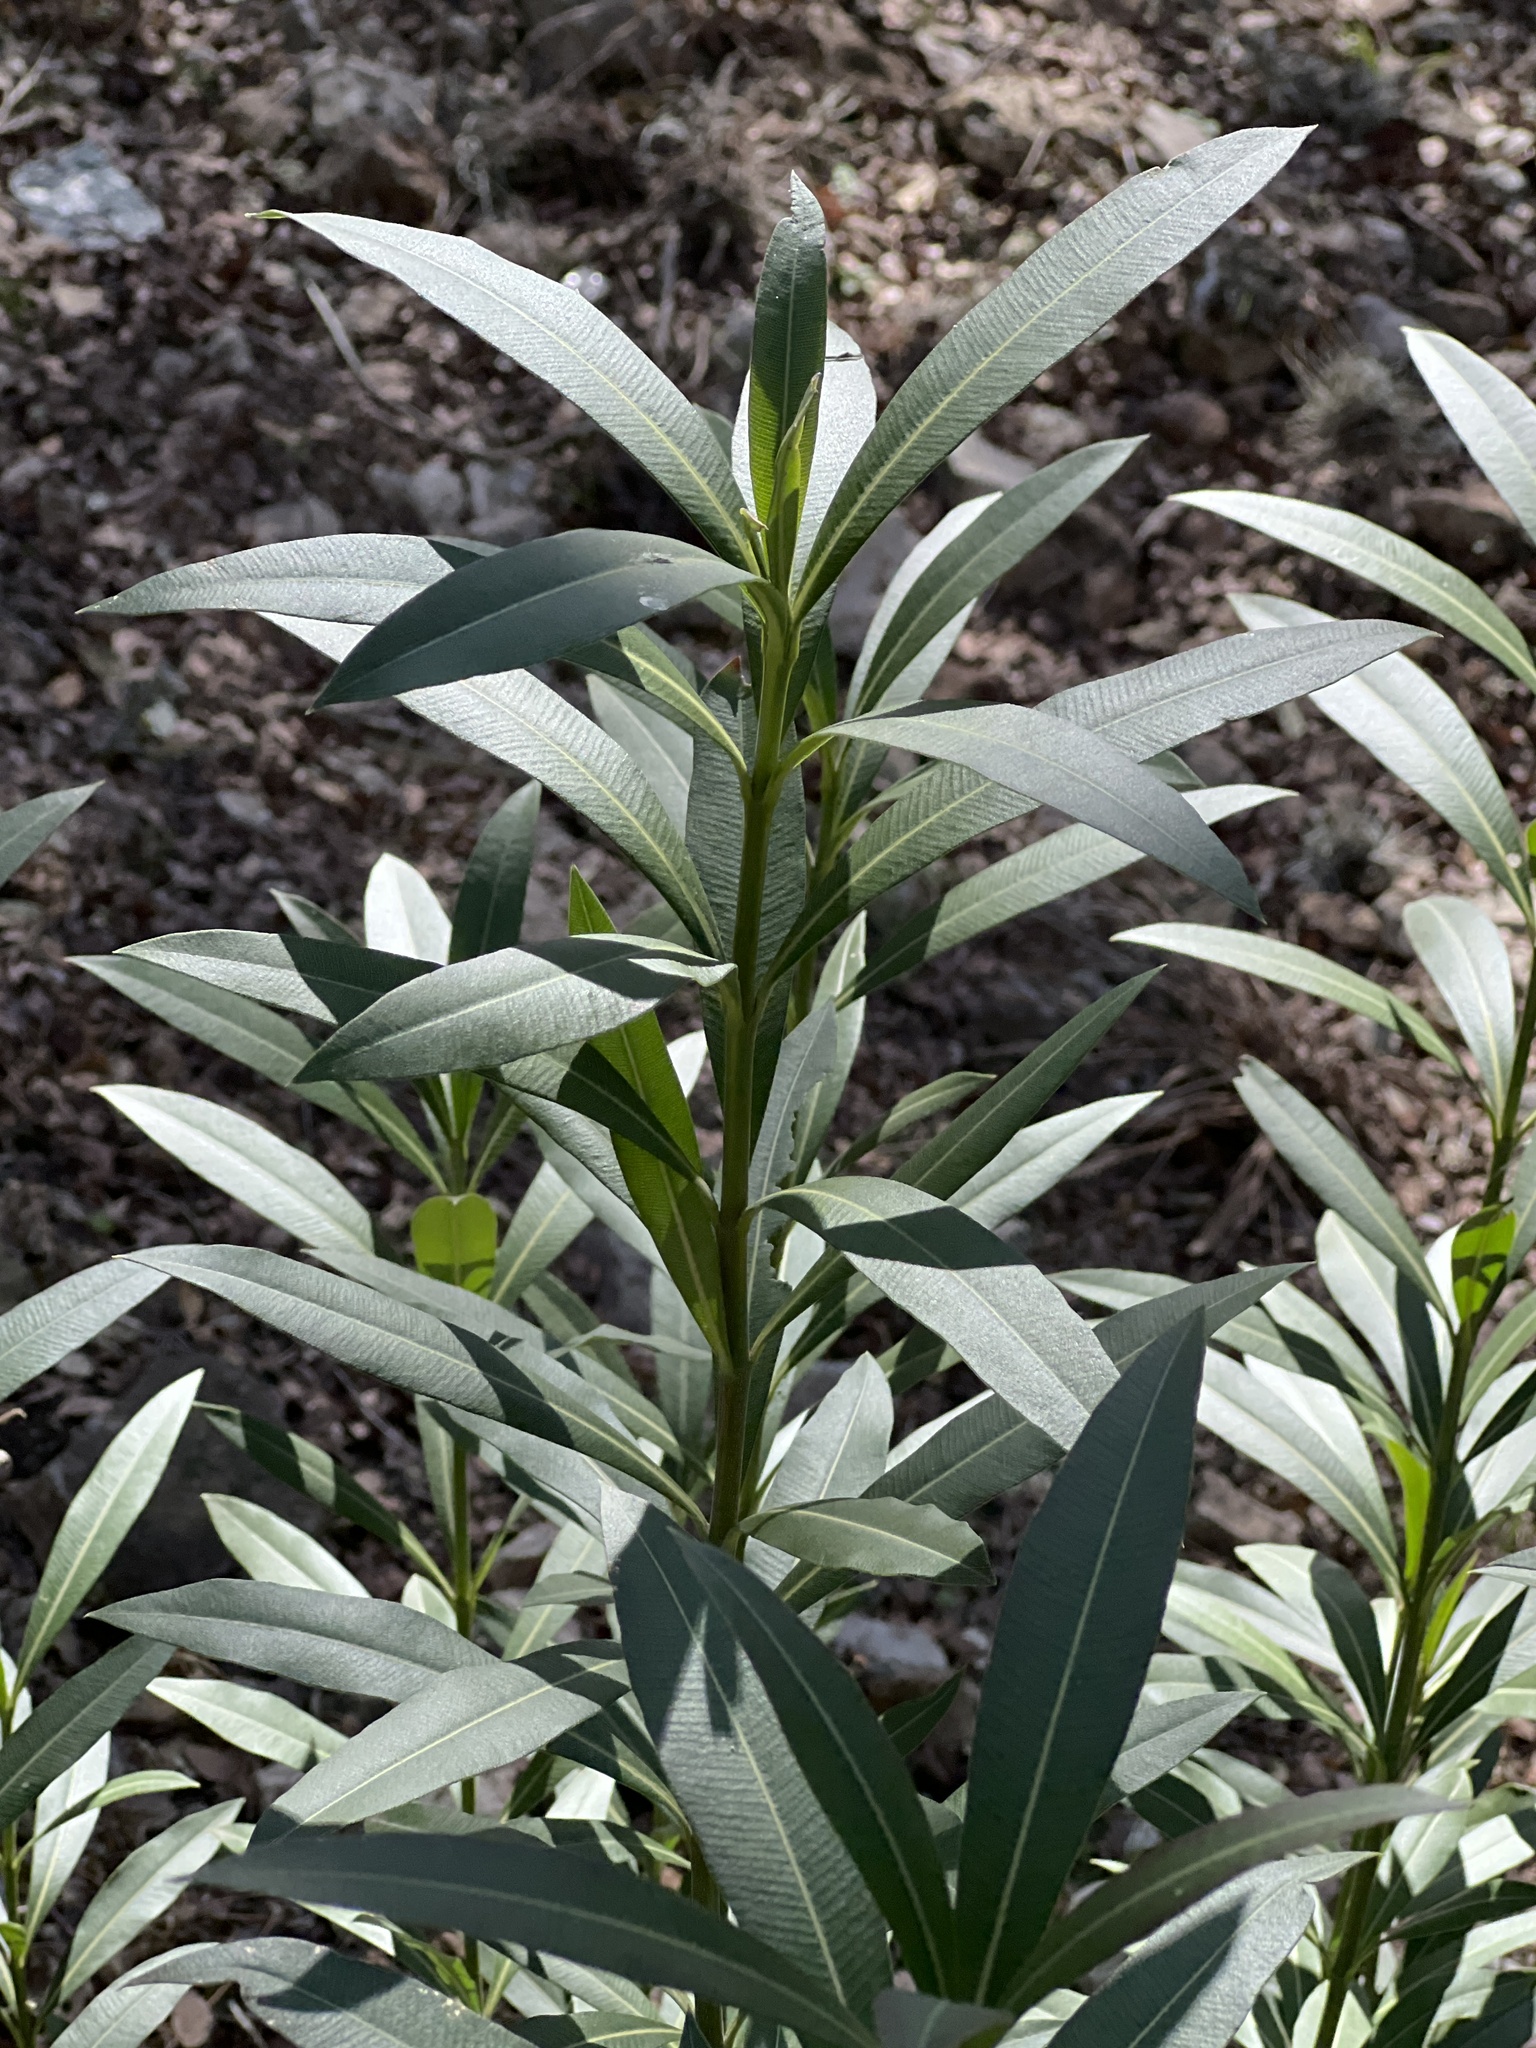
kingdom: Plantae
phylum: Tracheophyta
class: Magnoliopsida
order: Gentianales
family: Apocynaceae
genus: Nerium
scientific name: Nerium oleander
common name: Oleander
